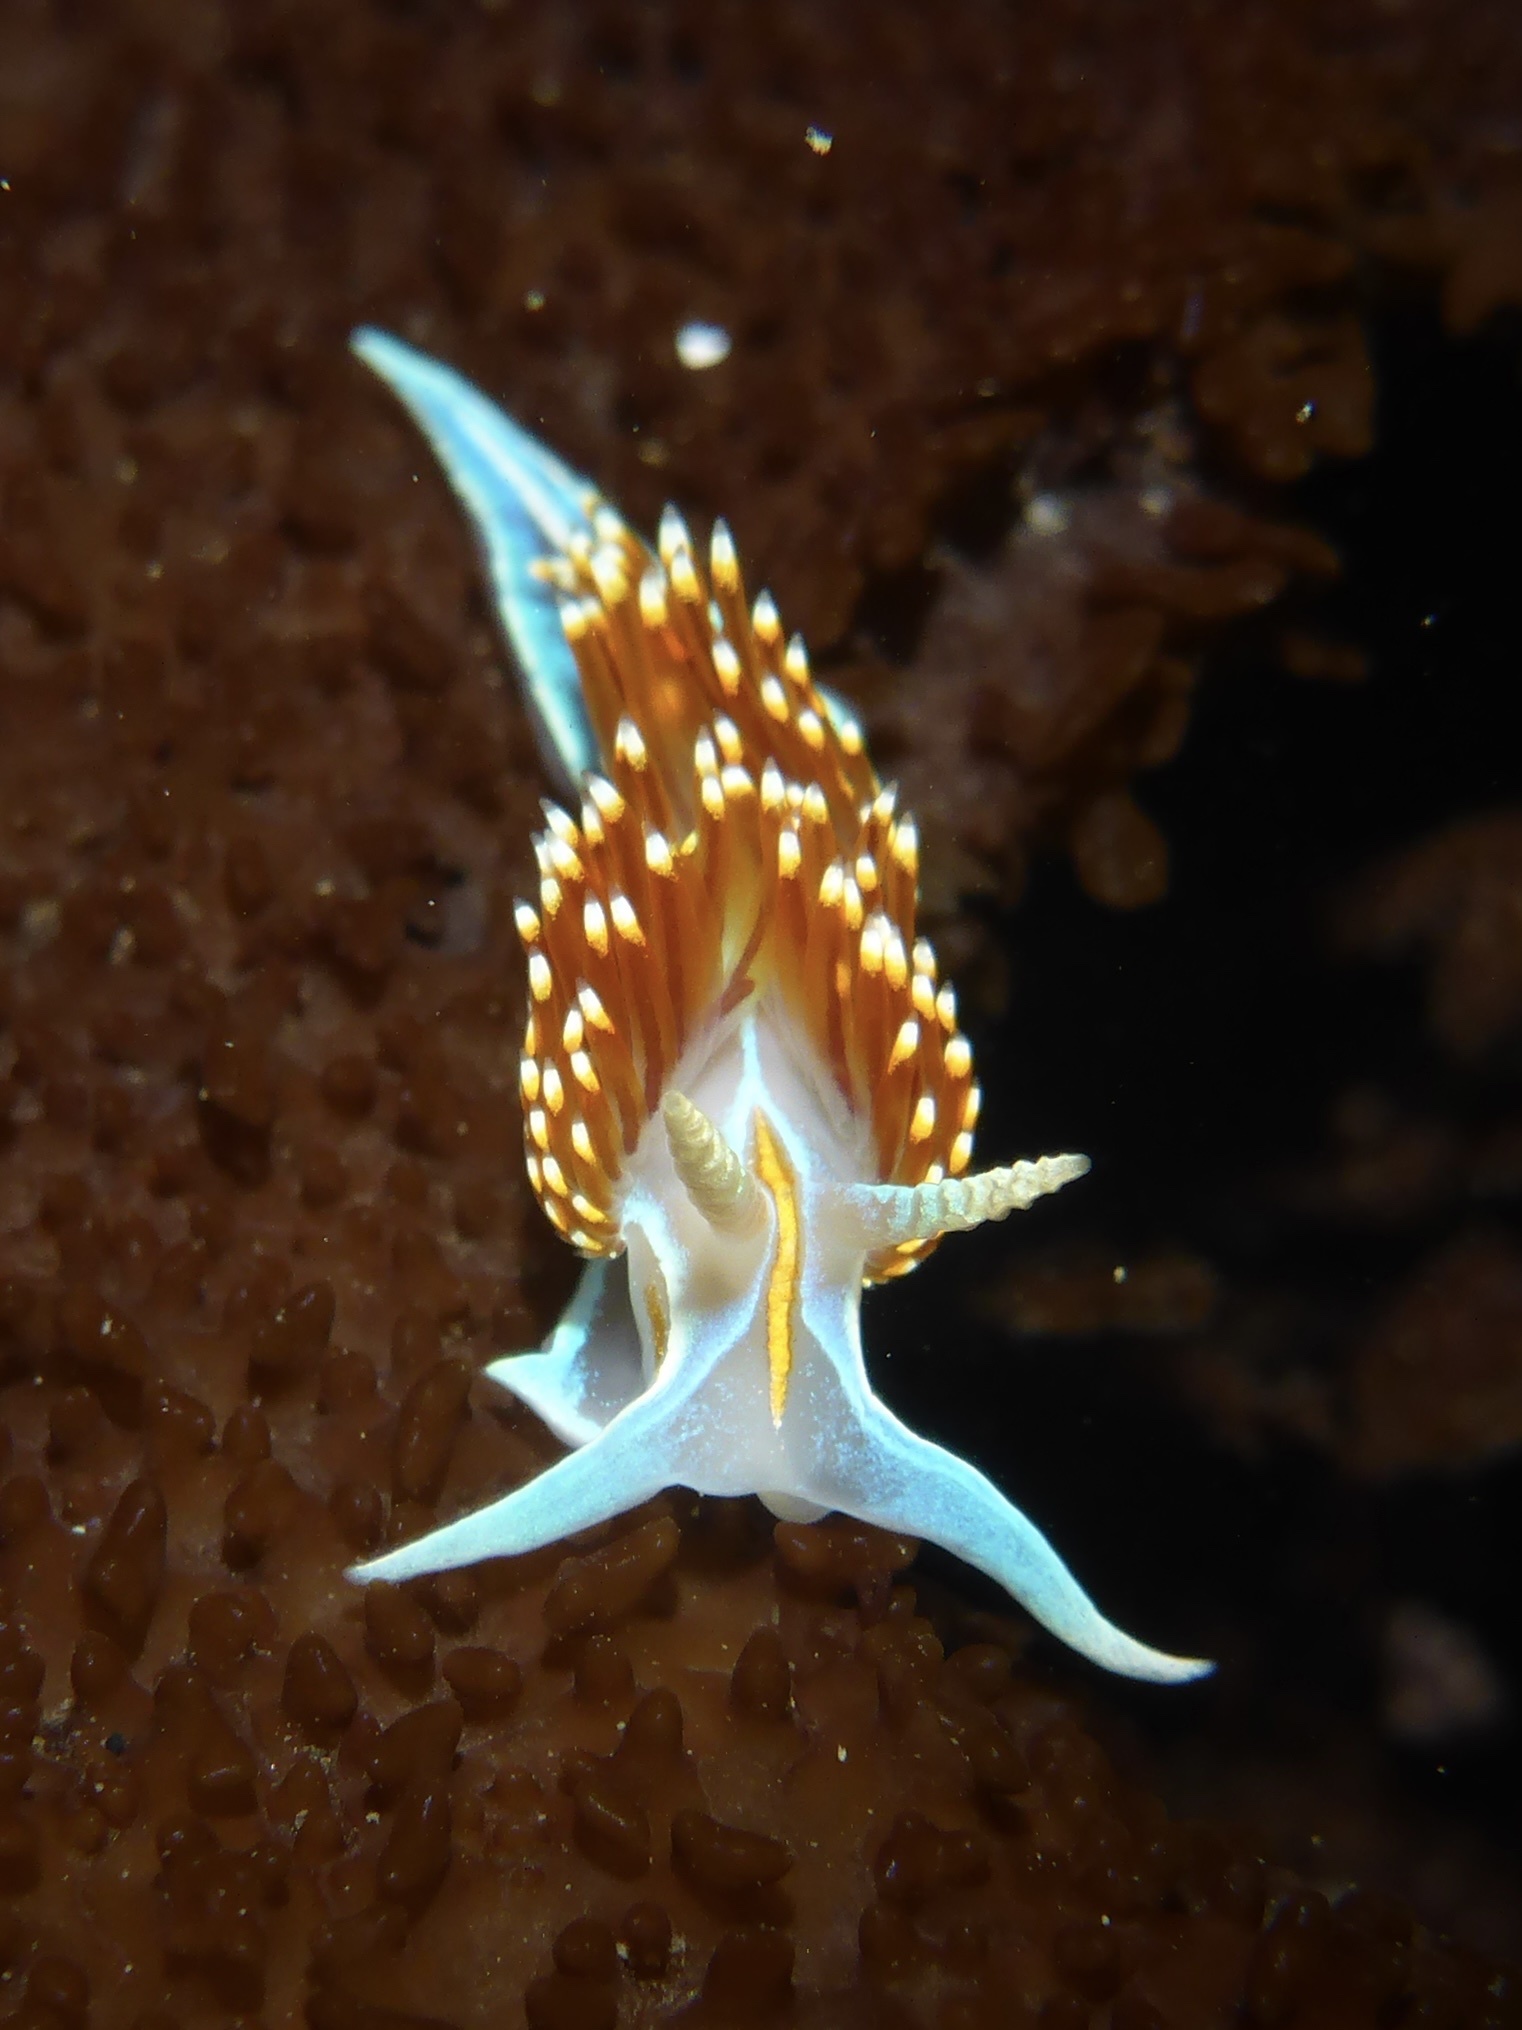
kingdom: Animalia
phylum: Mollusca
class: Gastropoda
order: Nudibranchia
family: Myrrhinidae
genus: Hermissenda
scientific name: Hermissenda opalescens
